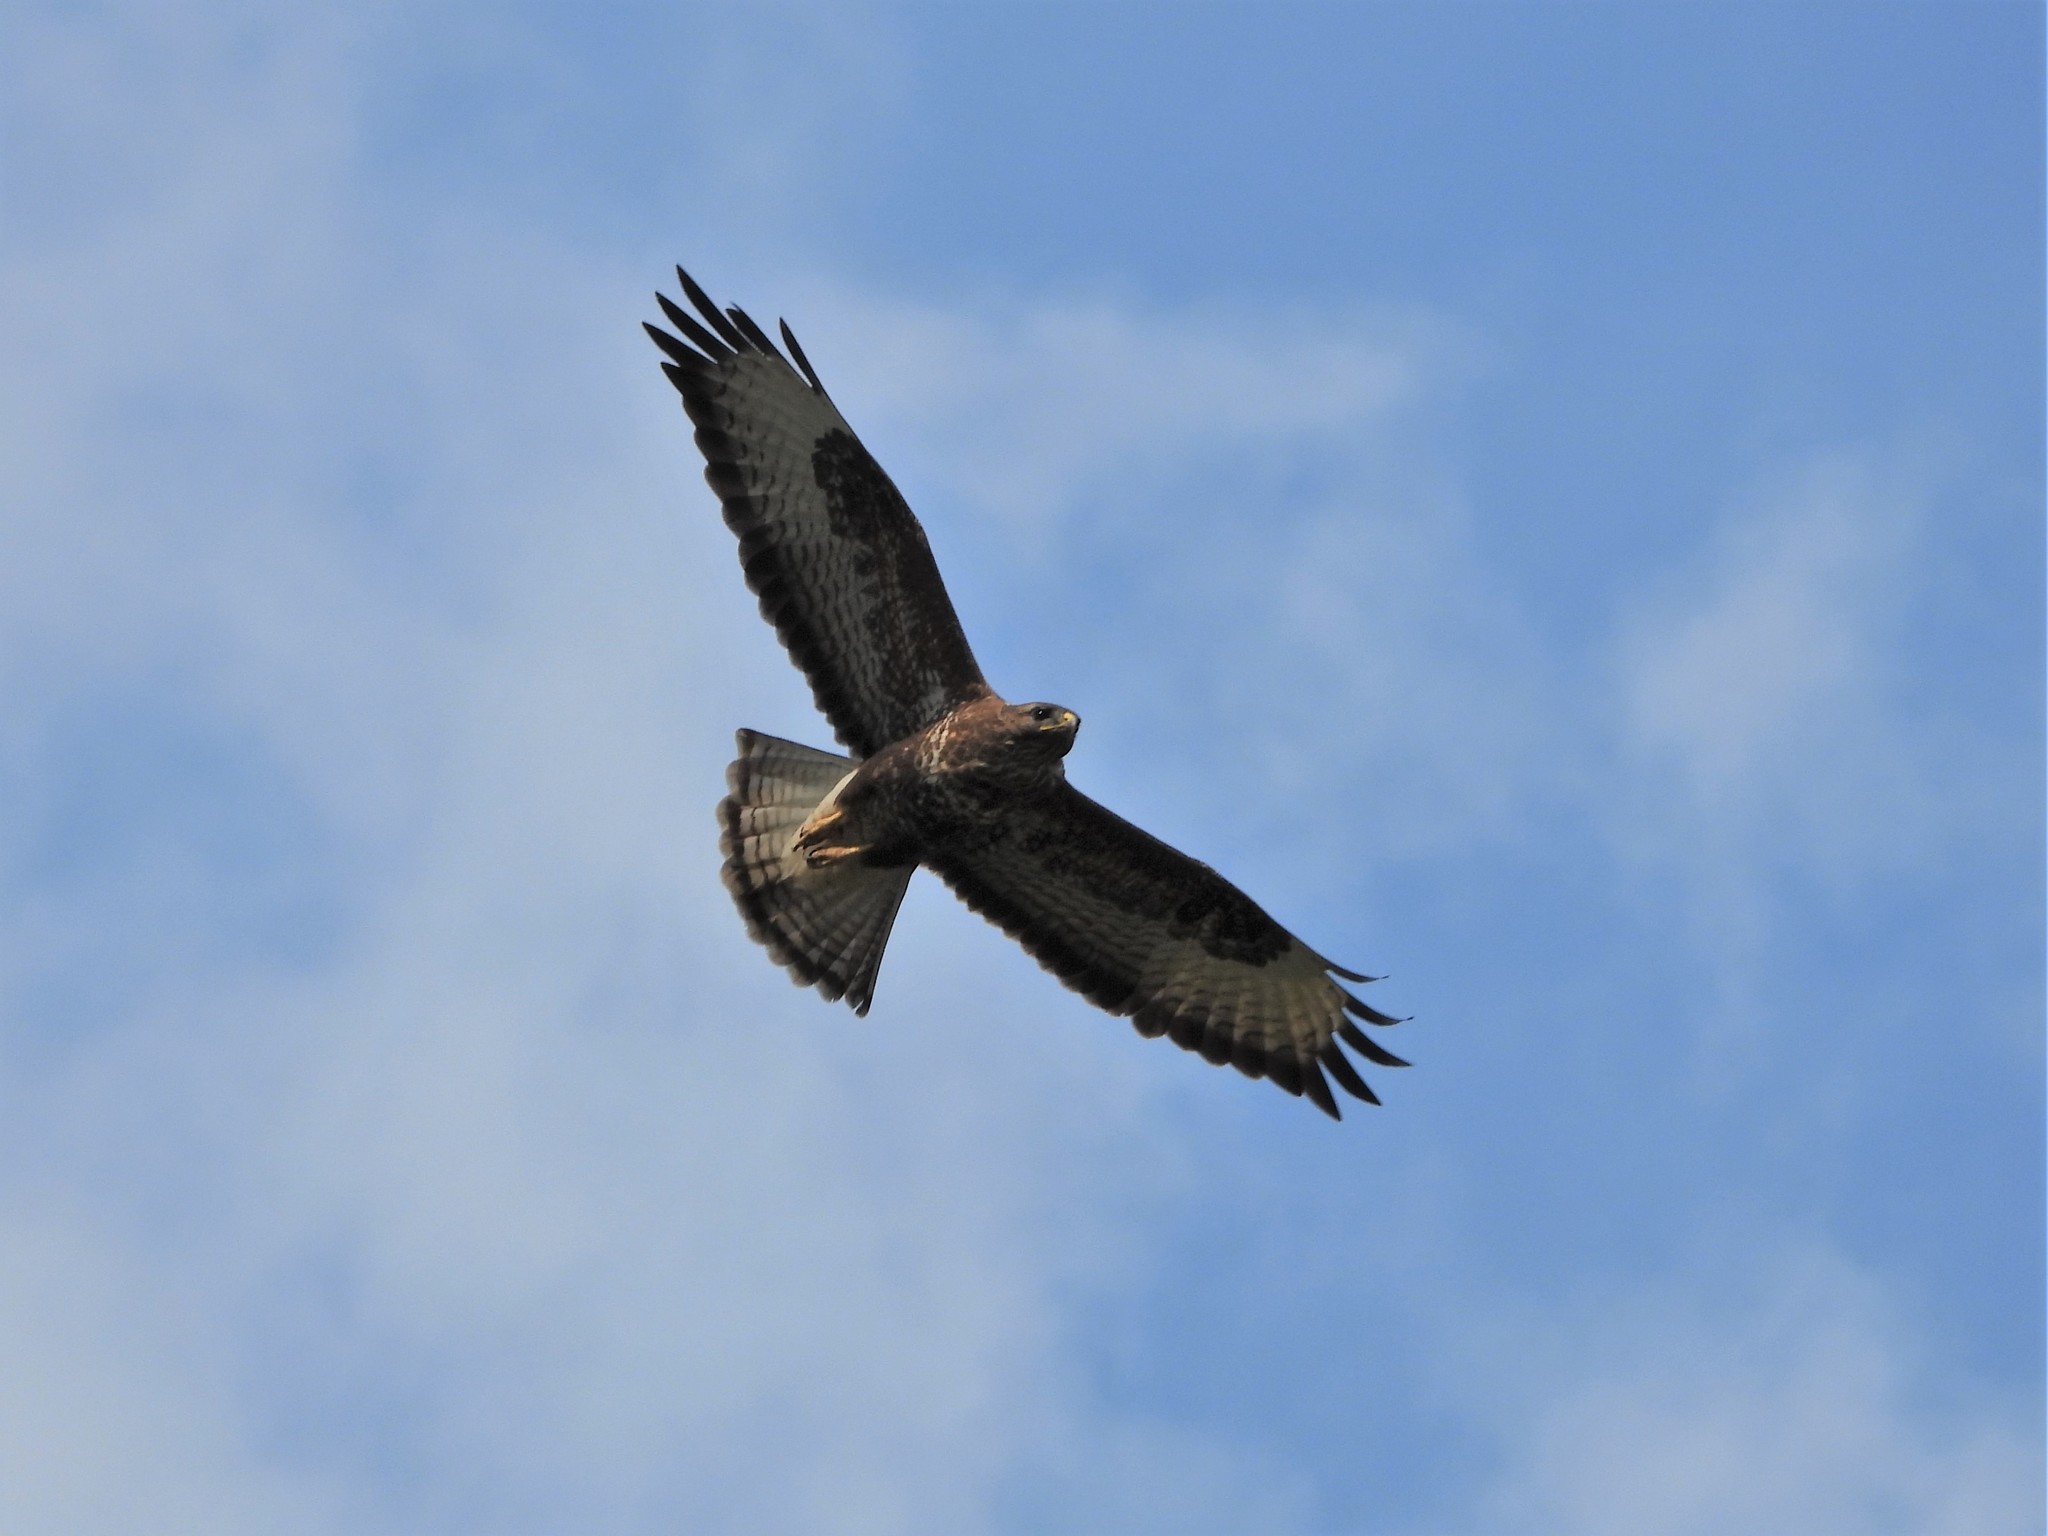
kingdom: Animalia
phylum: Chordata
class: Aves
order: Accipitriformes
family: Accipitridae
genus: Buteo
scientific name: Buteo buteo
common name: Common buzzard
